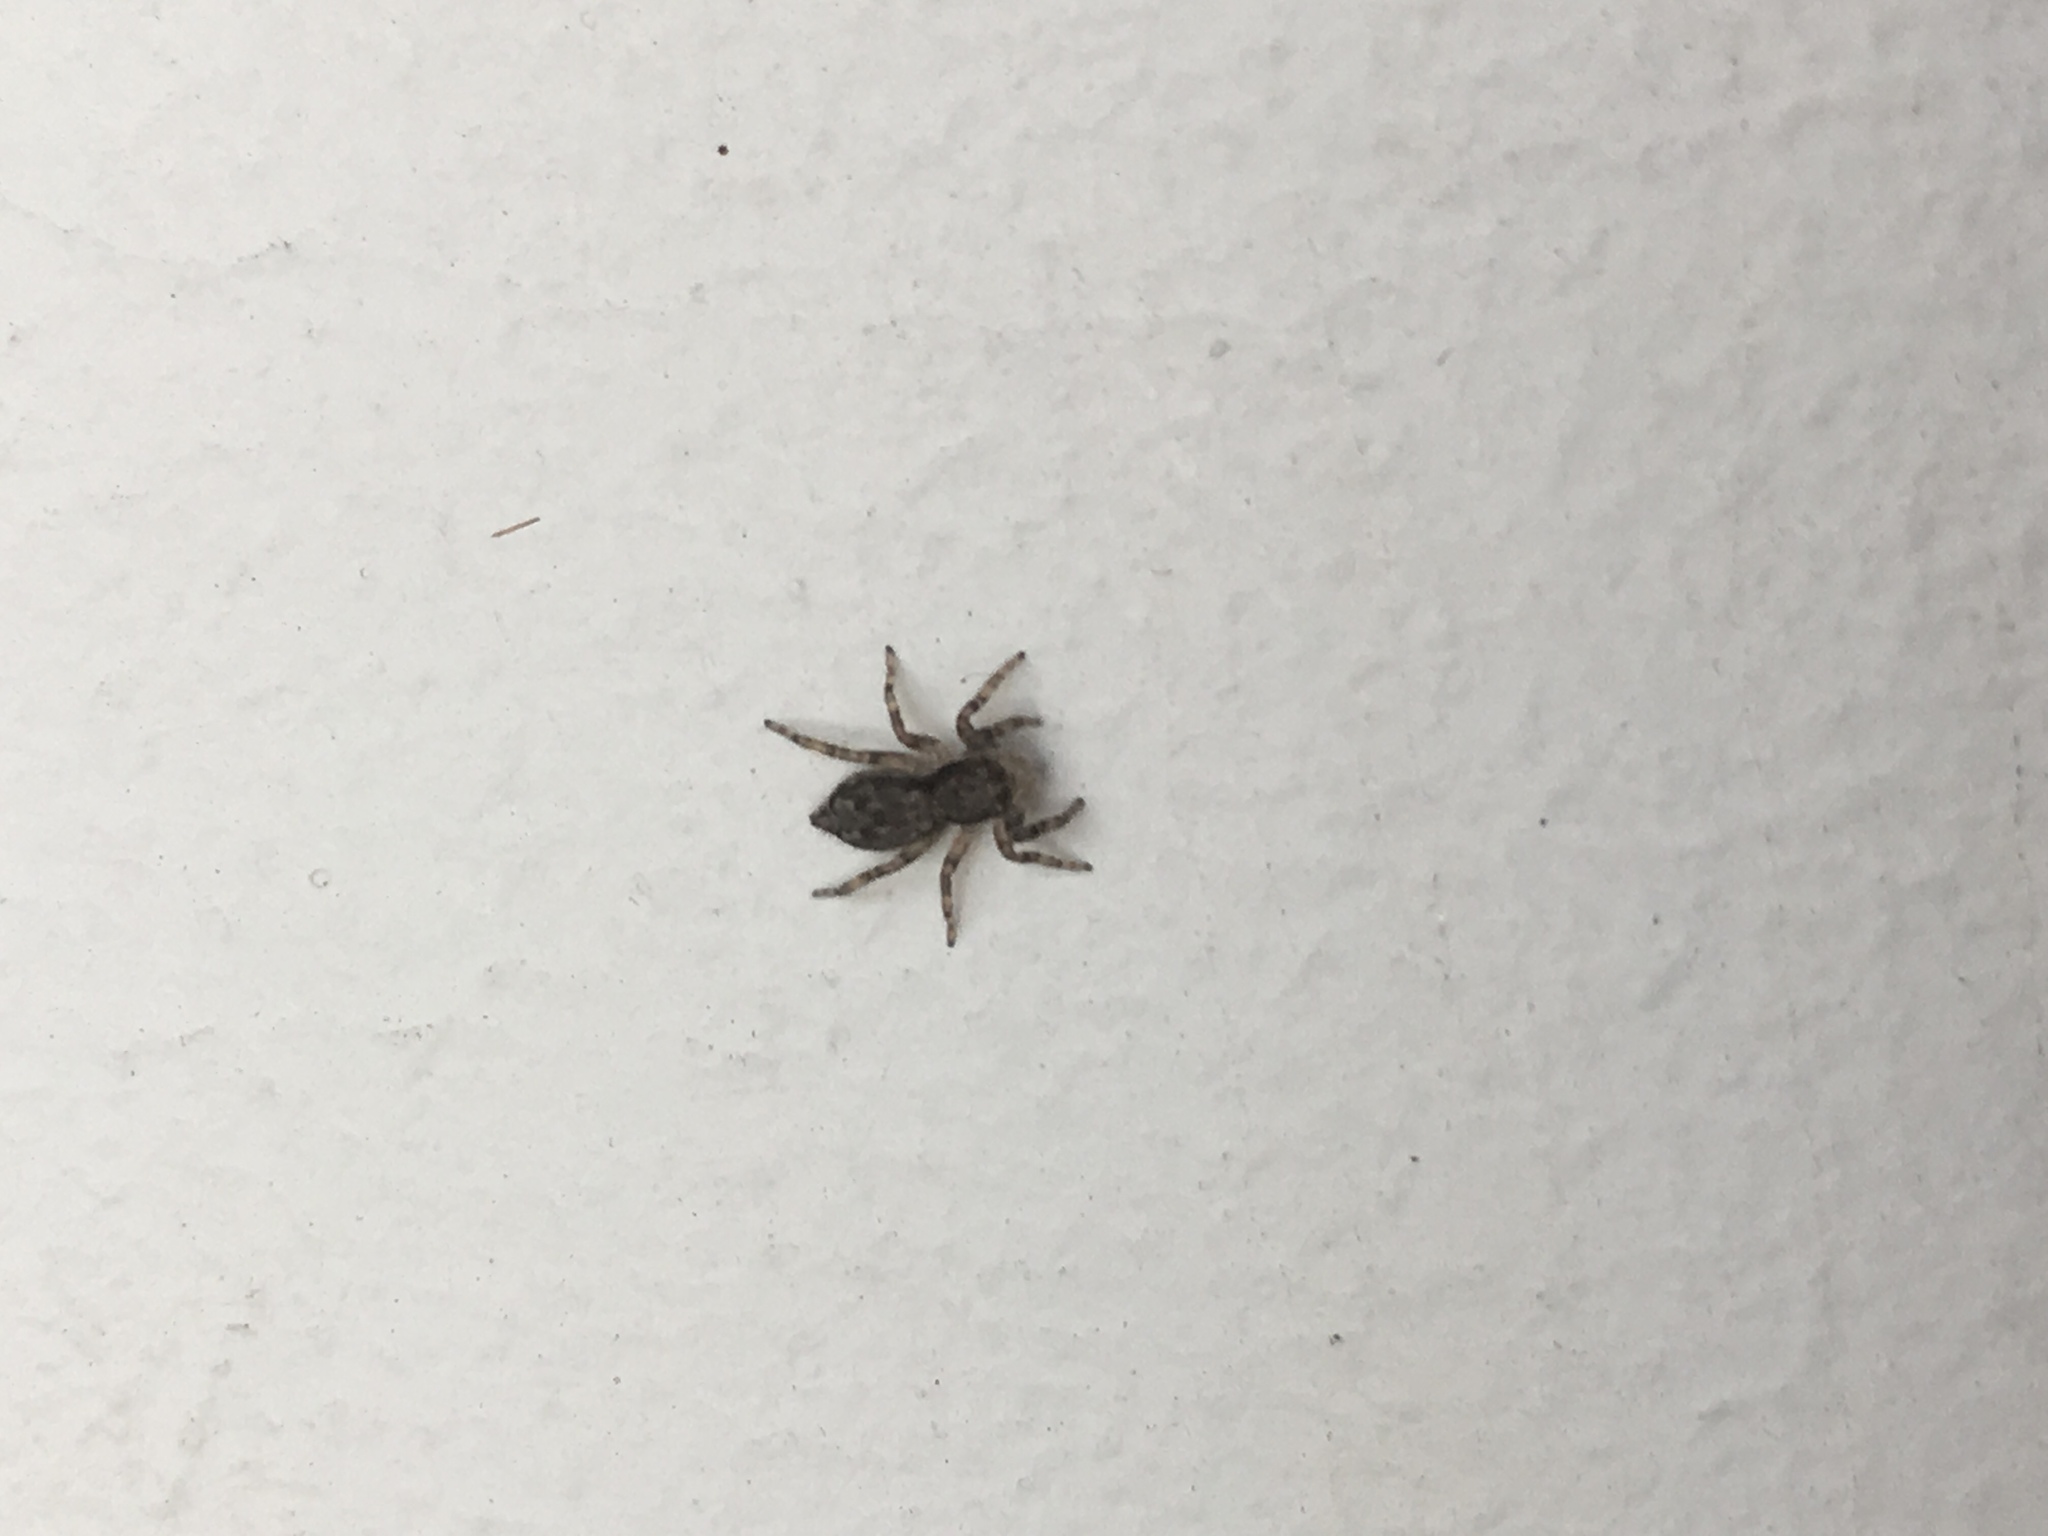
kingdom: Animalia
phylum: Arthropoda
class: Arachnida
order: Araneae
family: Salticidae
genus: Menemerus
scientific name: Menemerus bivittatus
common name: Gray wall jumper
